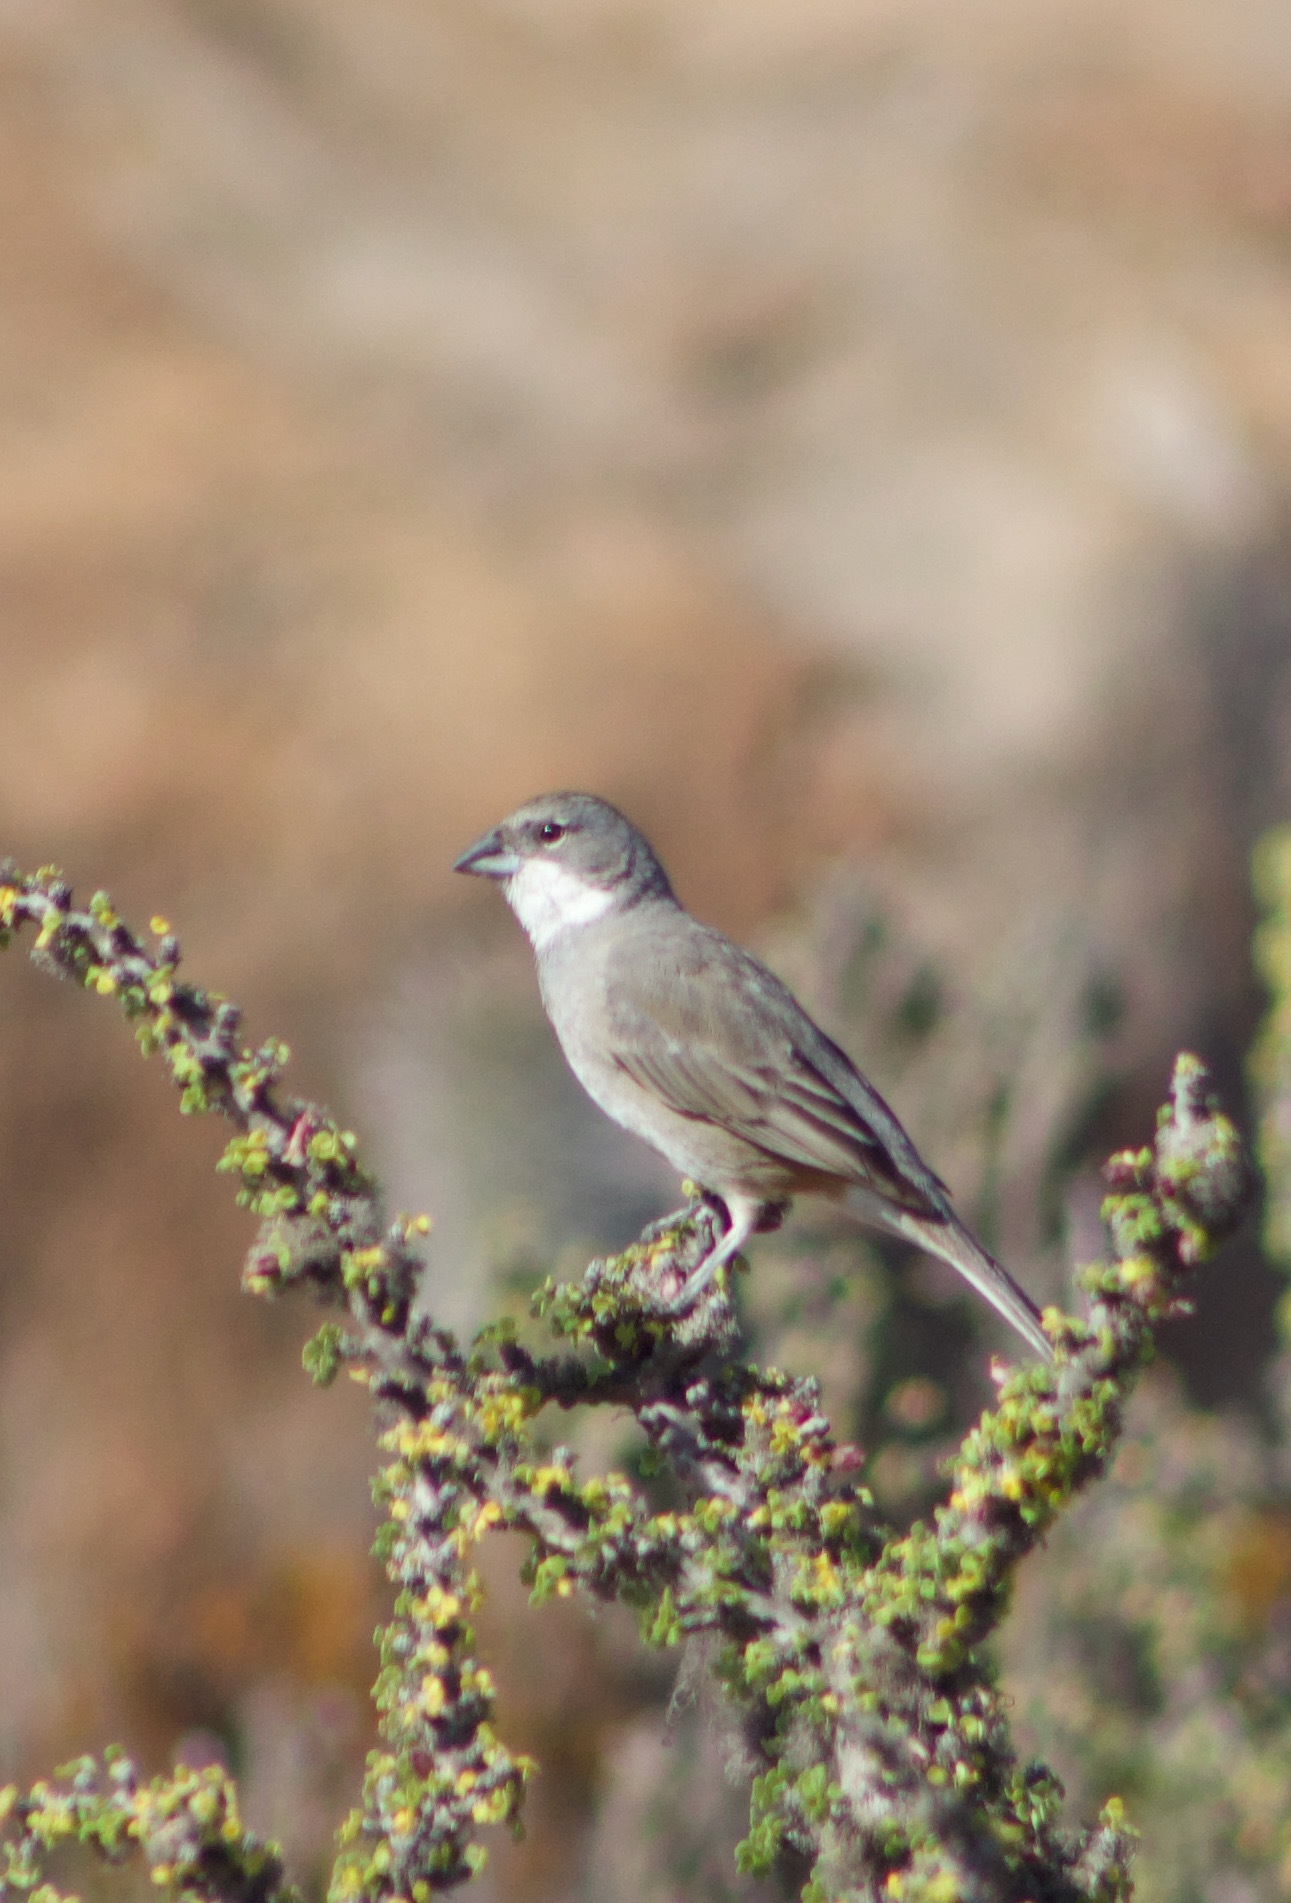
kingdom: Animalia
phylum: Chordata
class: Aves
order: Passeriformes
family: Thraupidae
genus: Diuca
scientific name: Diuca diuca
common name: Common diuca finch
